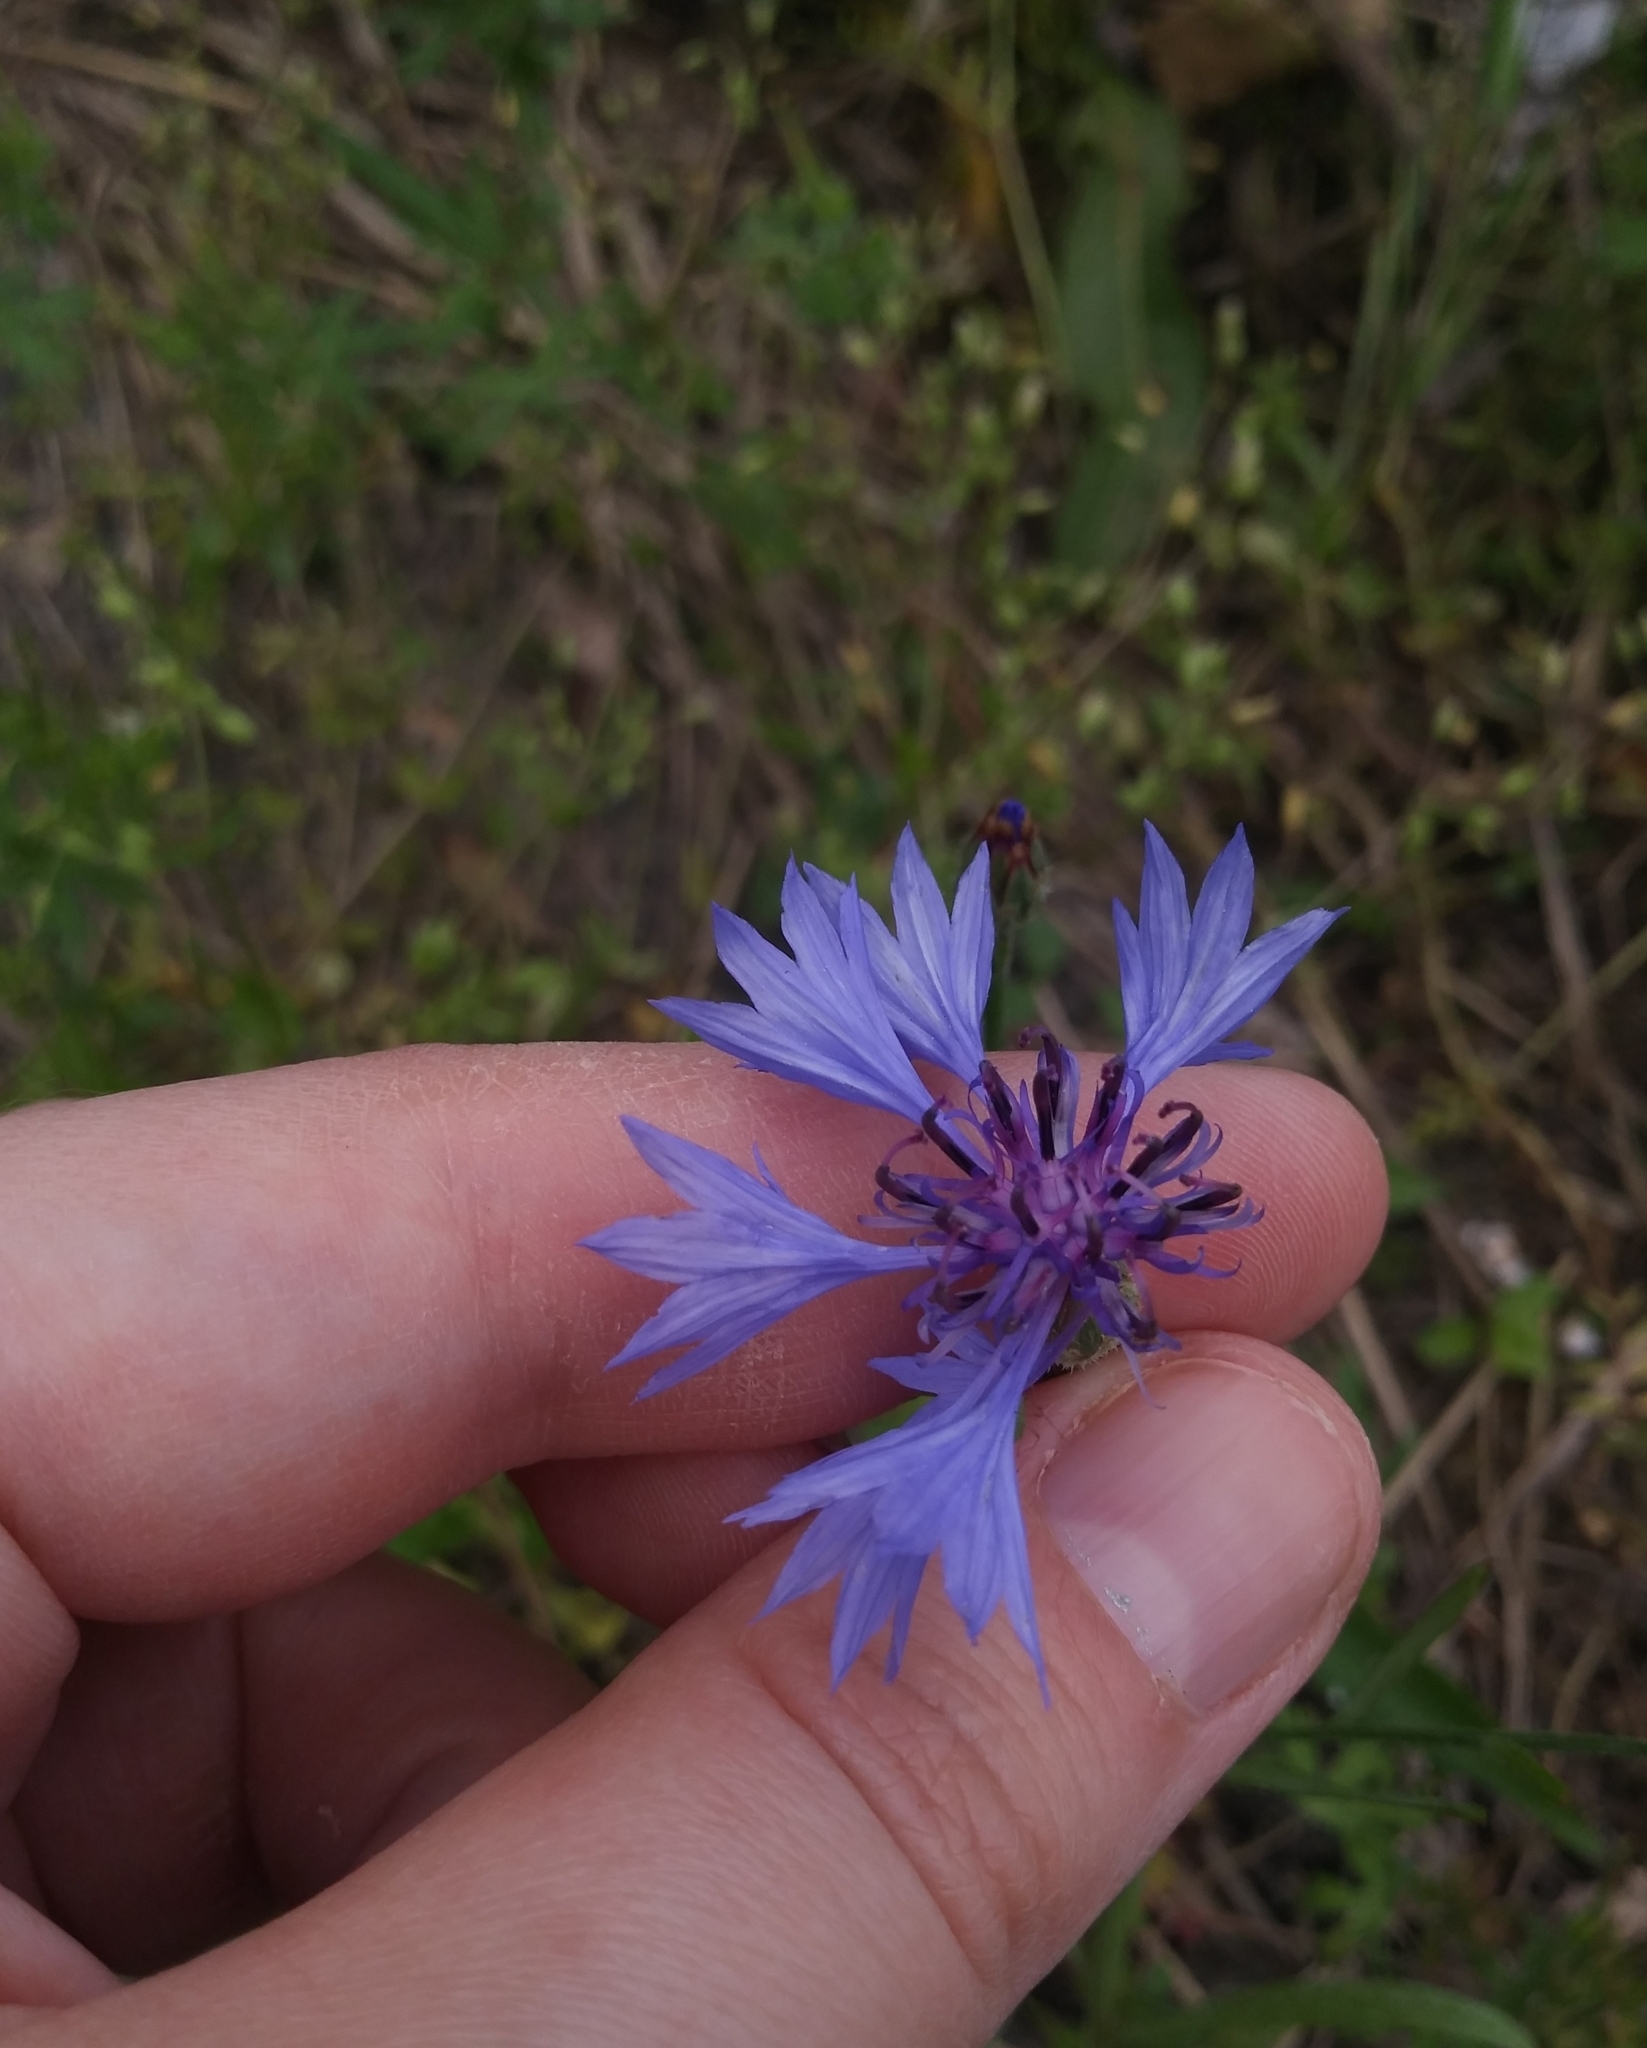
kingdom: Plantae
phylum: Tracheophyta
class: Magnoliopsida
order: Asterales
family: Asteraceae
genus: Centaurea
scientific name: Centaurea cyanus
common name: Cornflower
